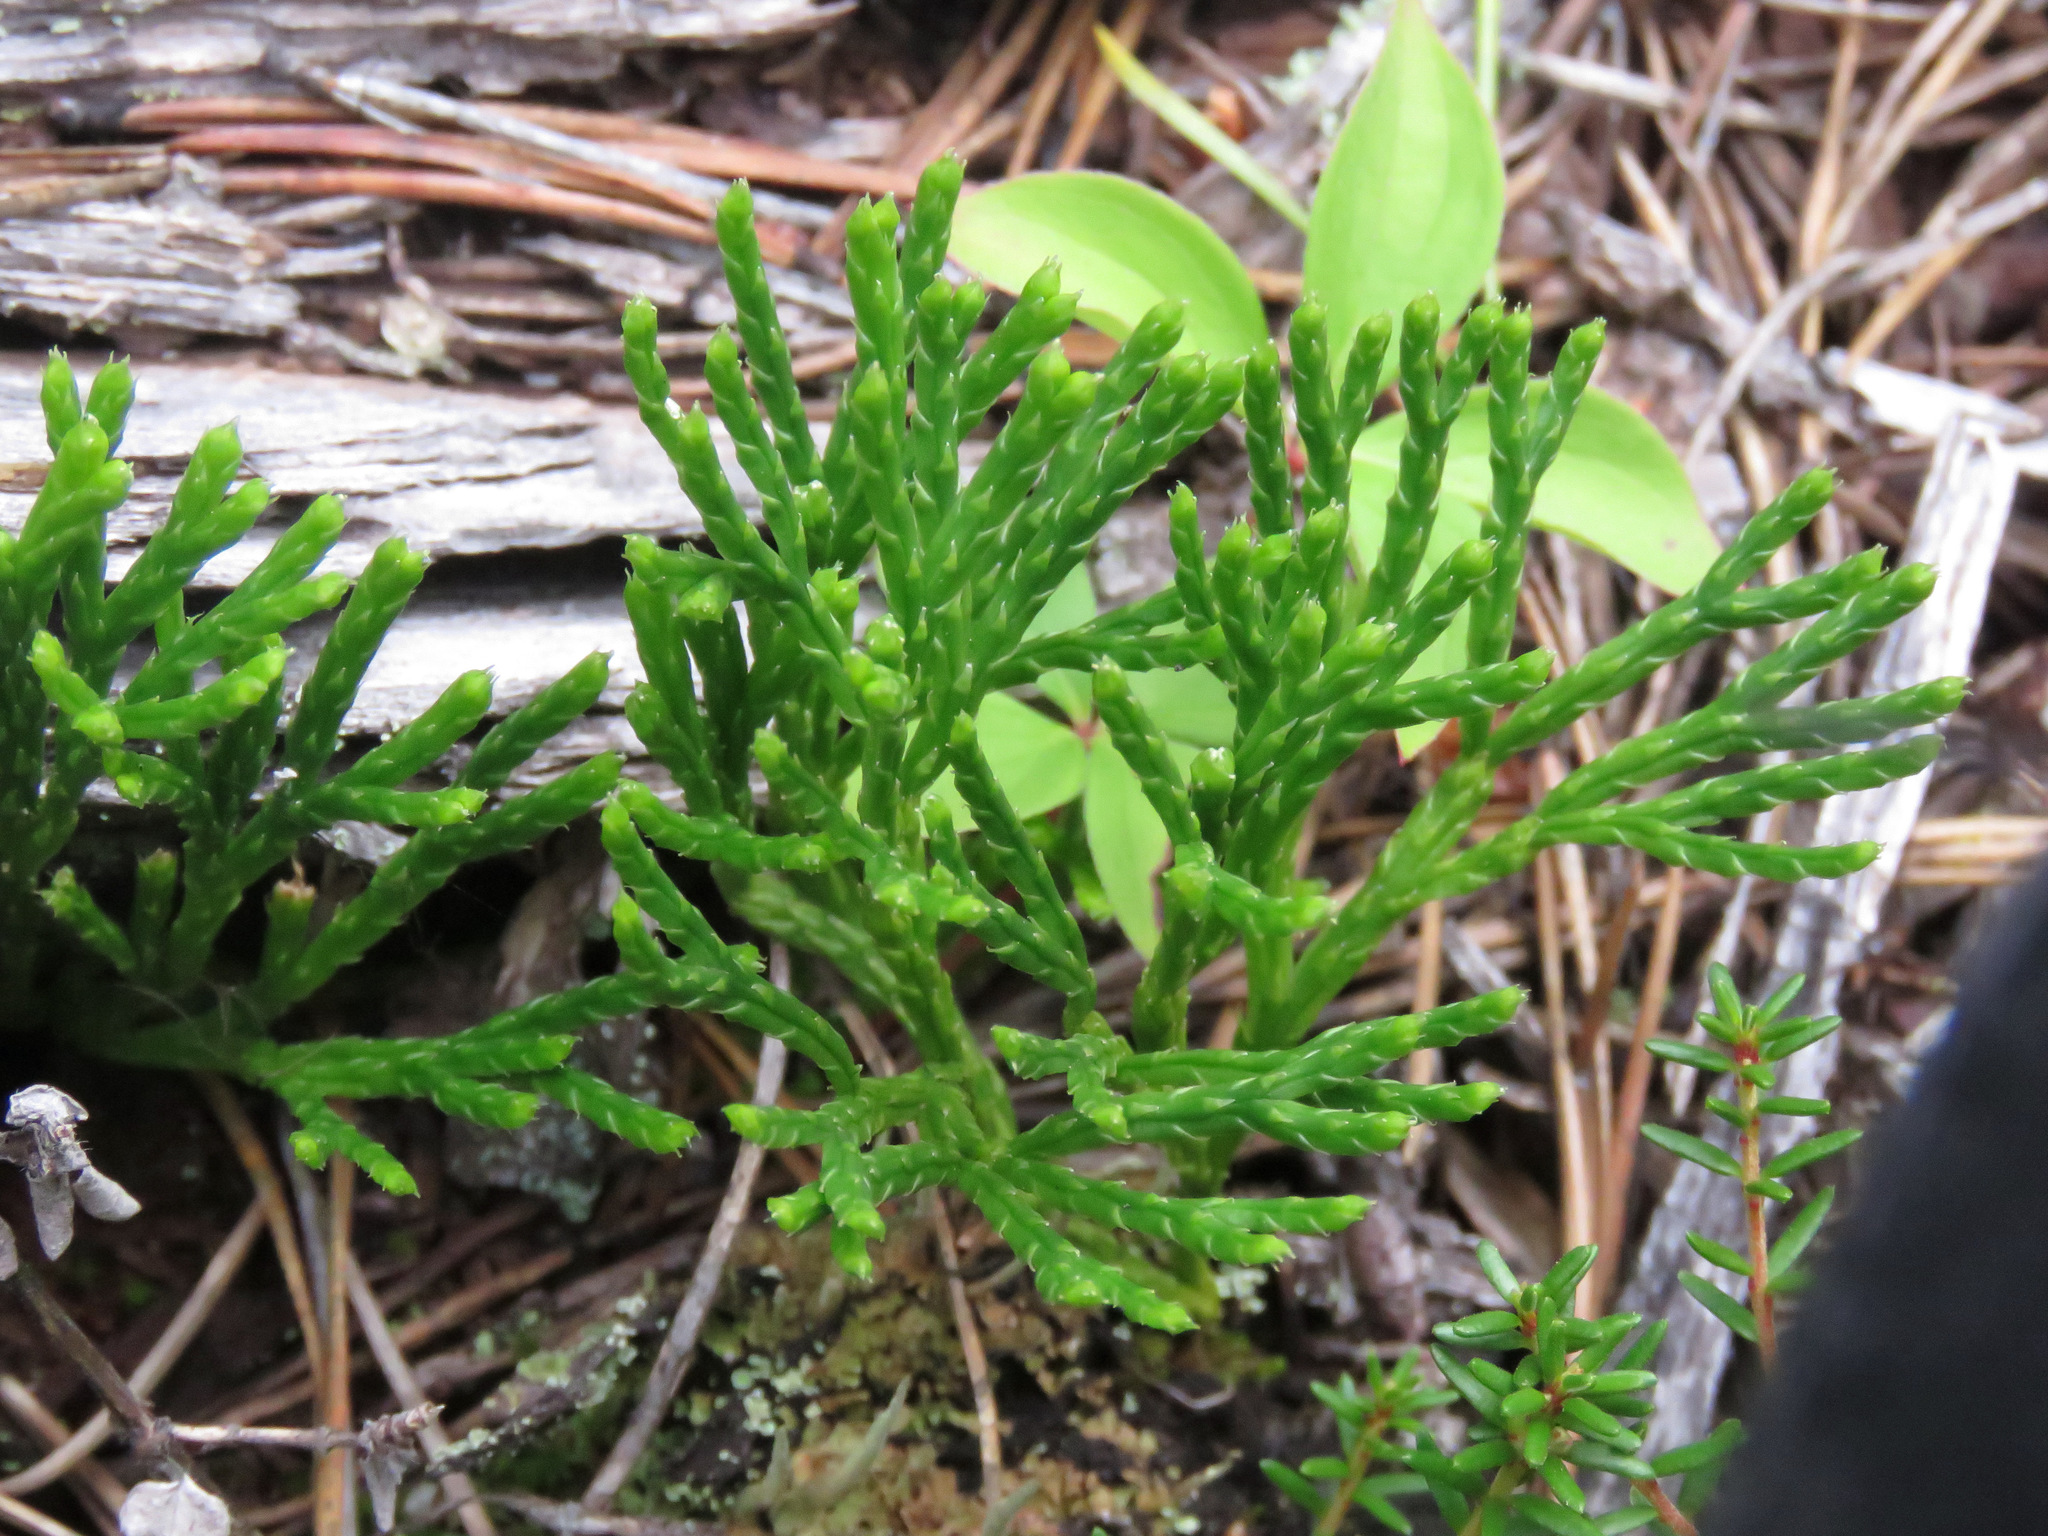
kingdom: Plantae
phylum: Tracheophyta
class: Lycopodiopsida
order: Lycopodiales
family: Lycopodiaceae
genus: Diphasiastrum
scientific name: Diphasiastrum complanatum
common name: Northern running-pine
